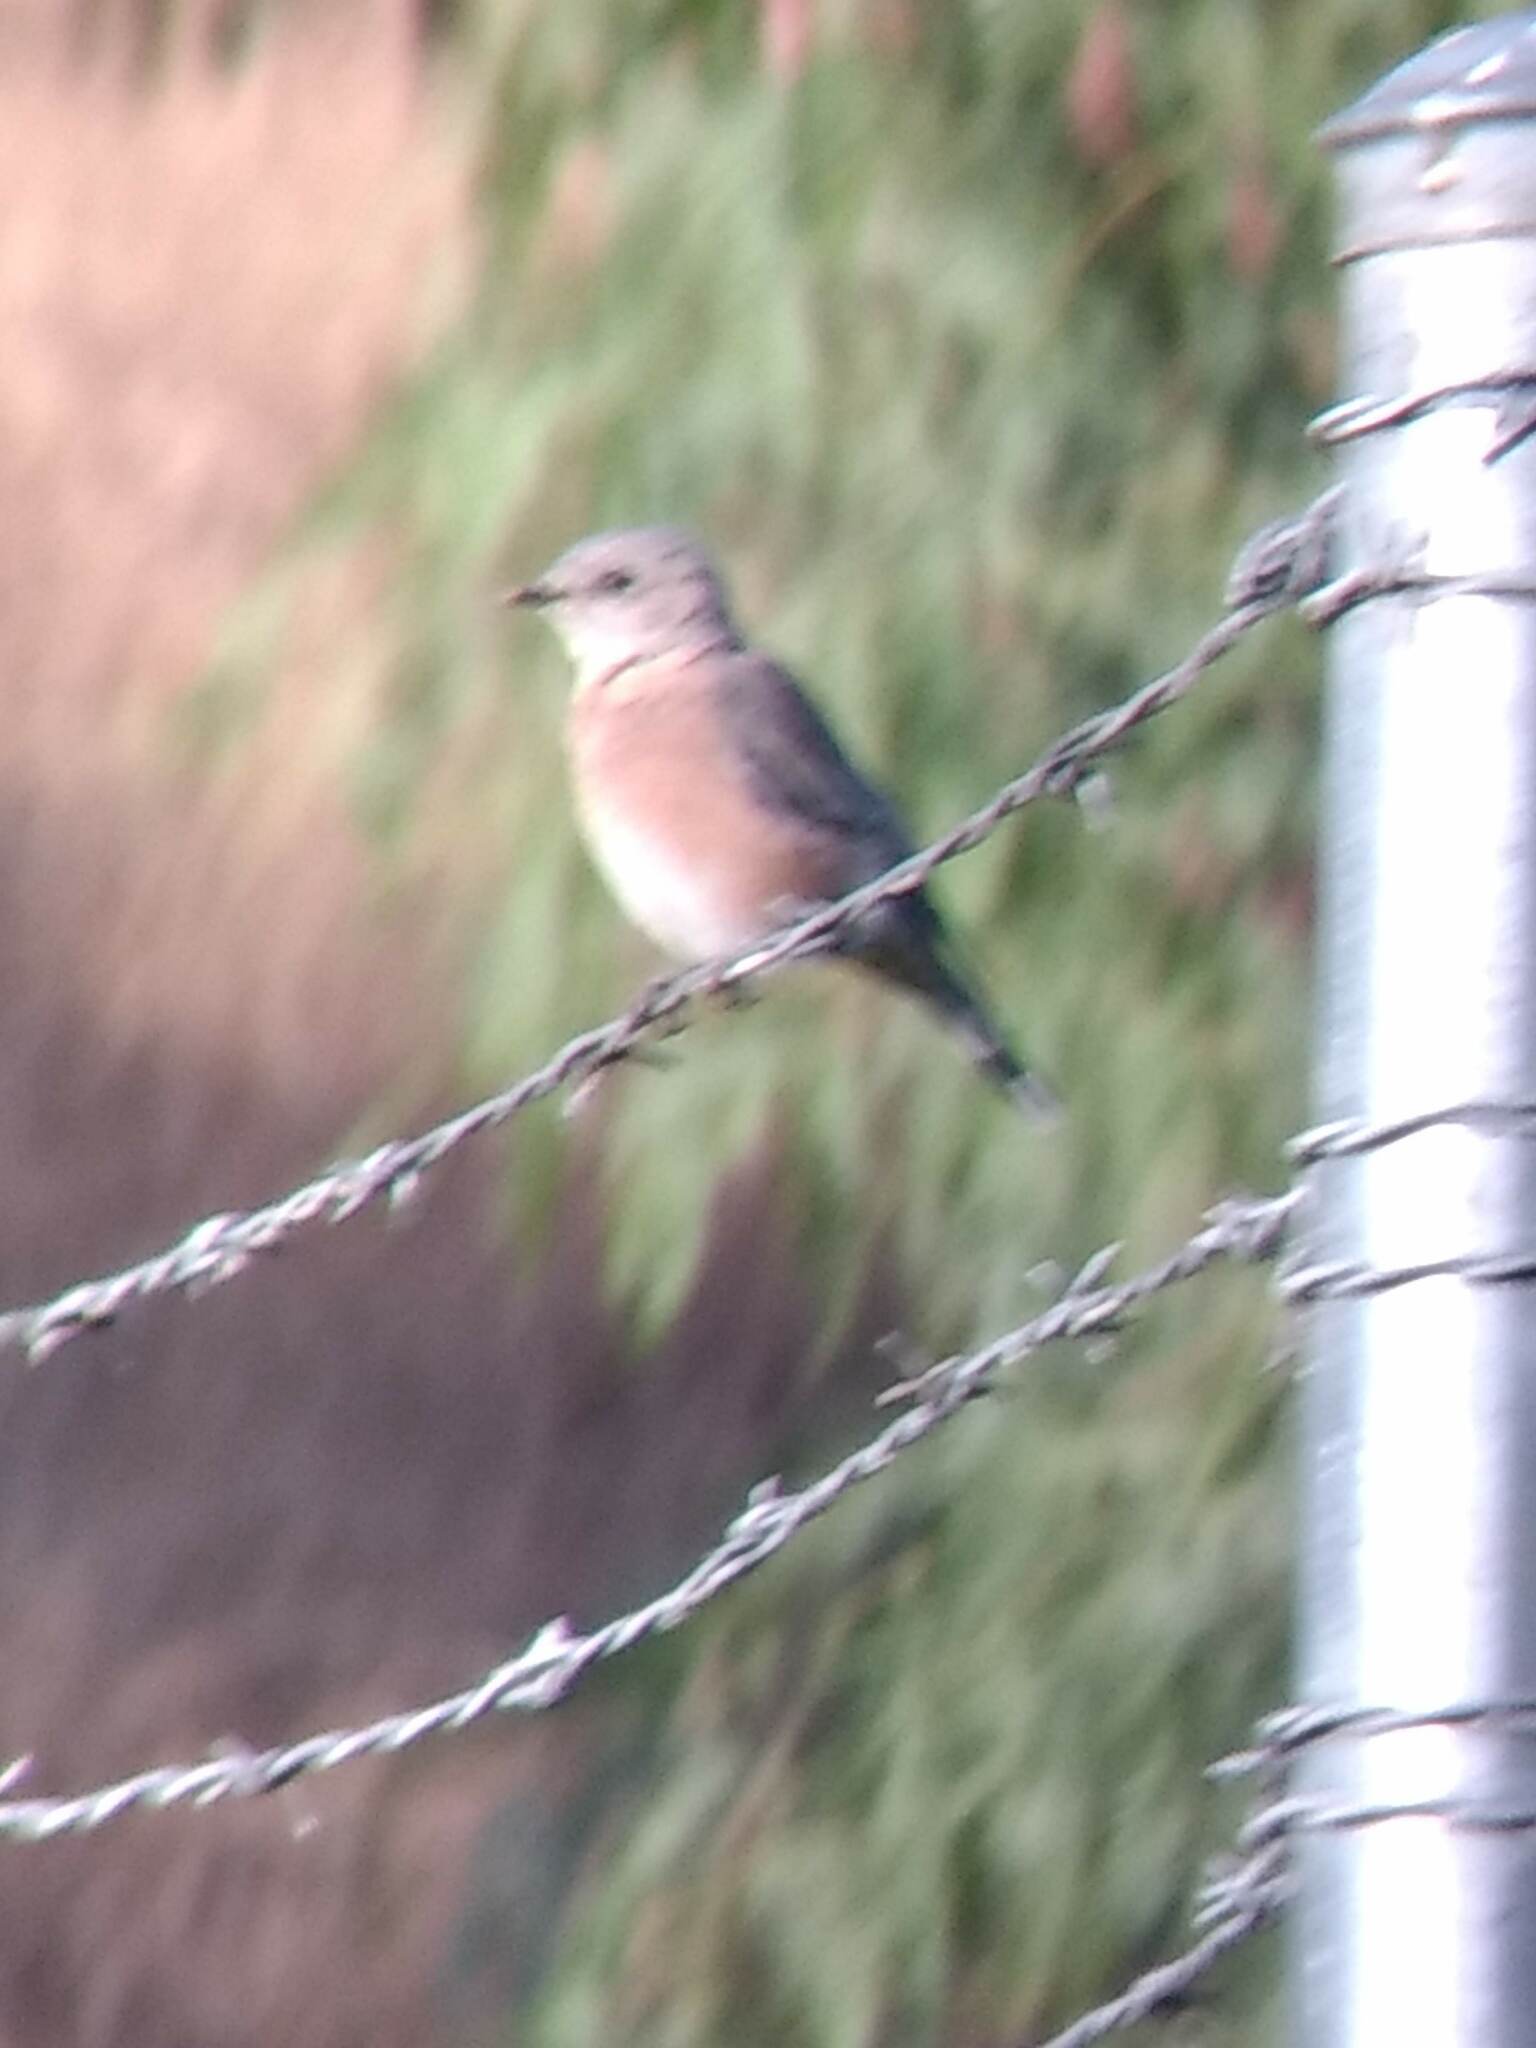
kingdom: Animalia
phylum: Chordata
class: Aves
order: Passeriformes
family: Turdidae
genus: Sialia
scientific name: Sialia mexicana
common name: Western bluebird
